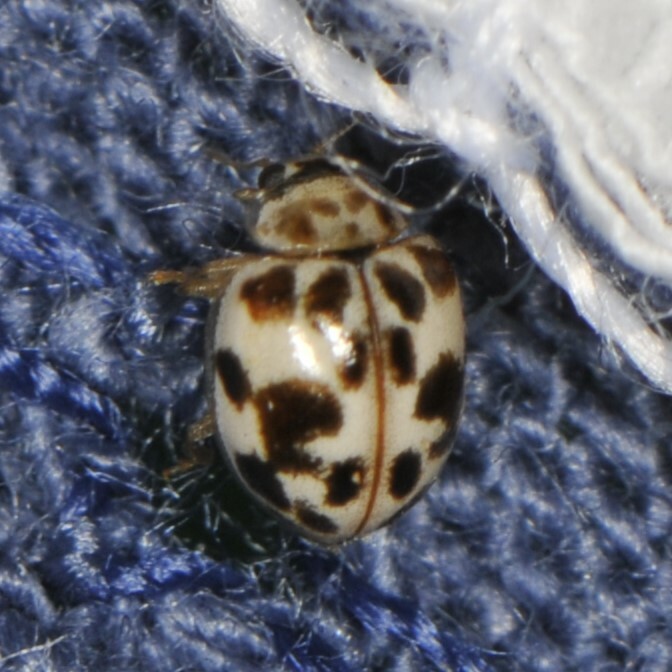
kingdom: Animalia
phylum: Arthropoda
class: Insecta
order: Coleoptera
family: Coccinellidae
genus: Psyllobora
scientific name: Psyllobora vigintimaculata
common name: Ladybird beetle
